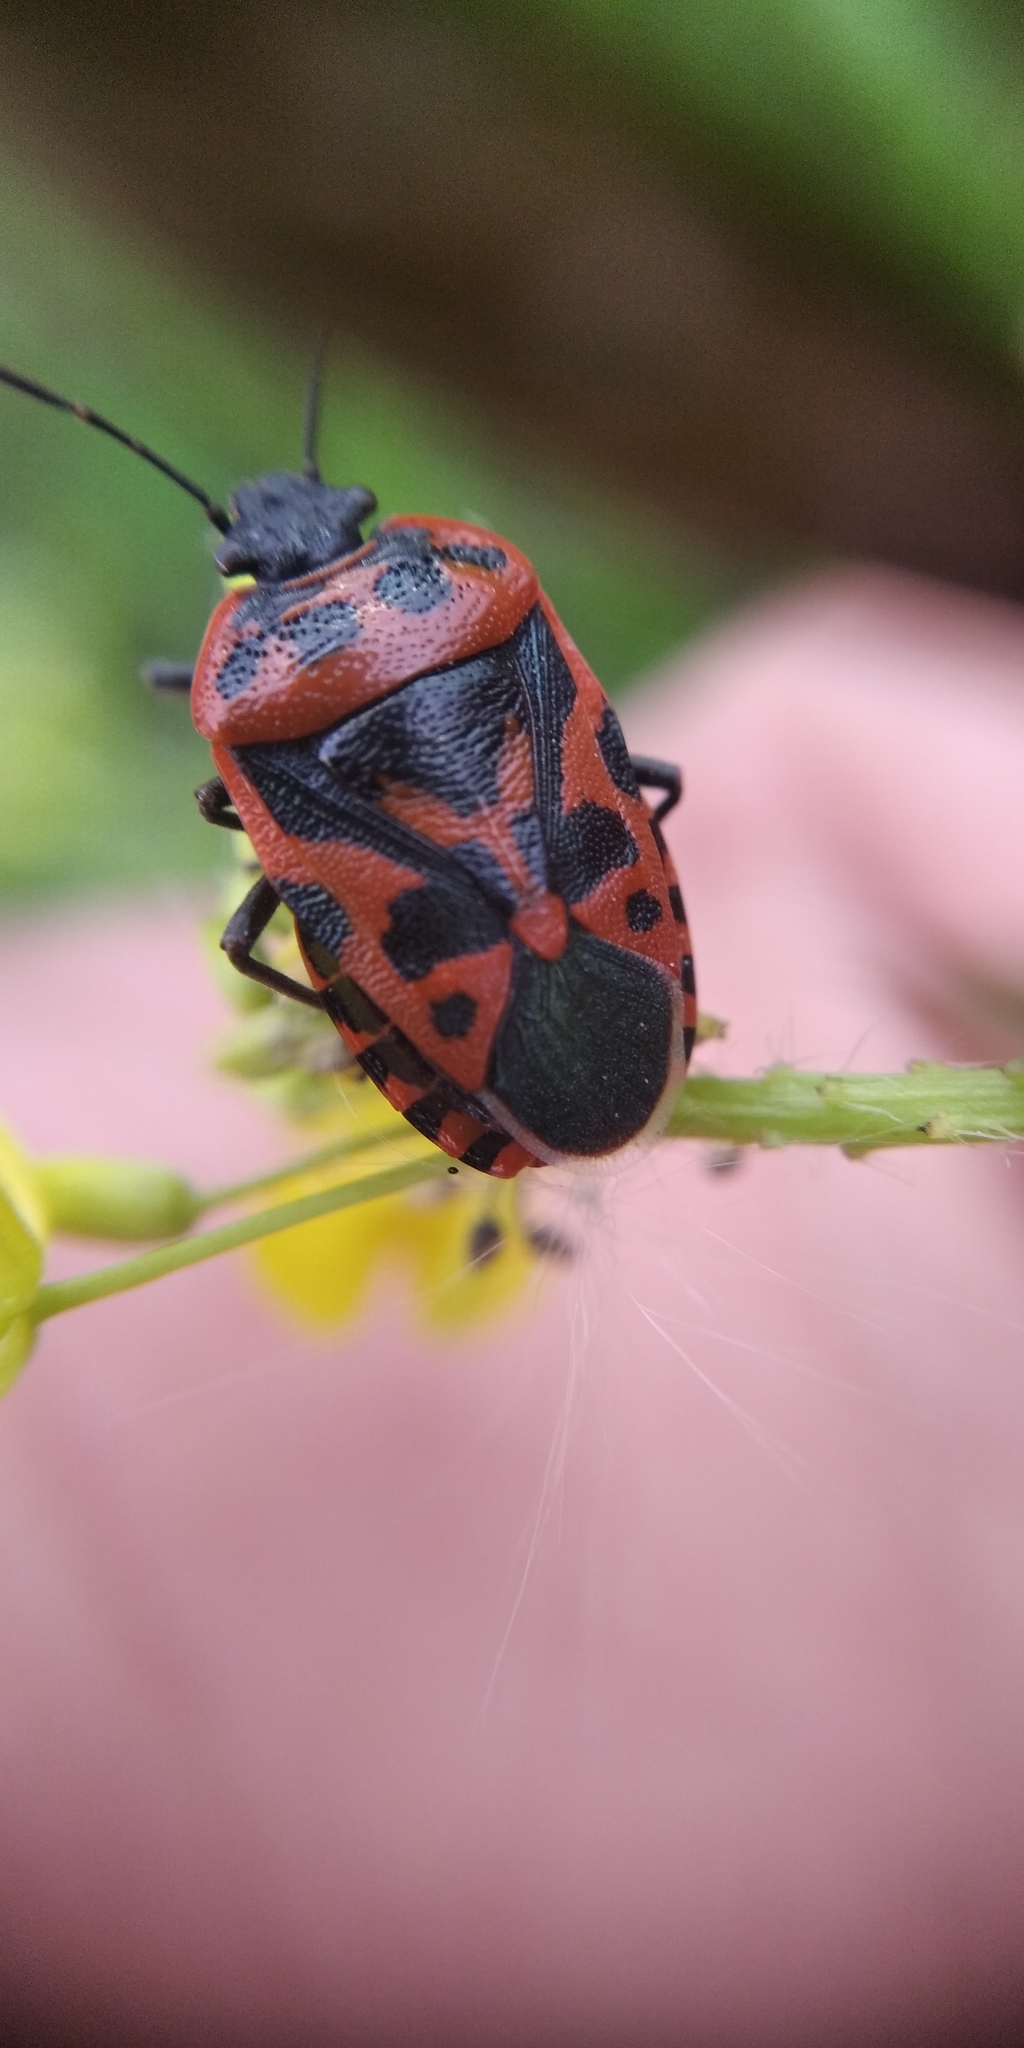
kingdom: Animalia
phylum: Arthropoda
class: Insecta
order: Hemiptera
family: Pentatomidae
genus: Eurydema
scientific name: Eurydema ventralis
